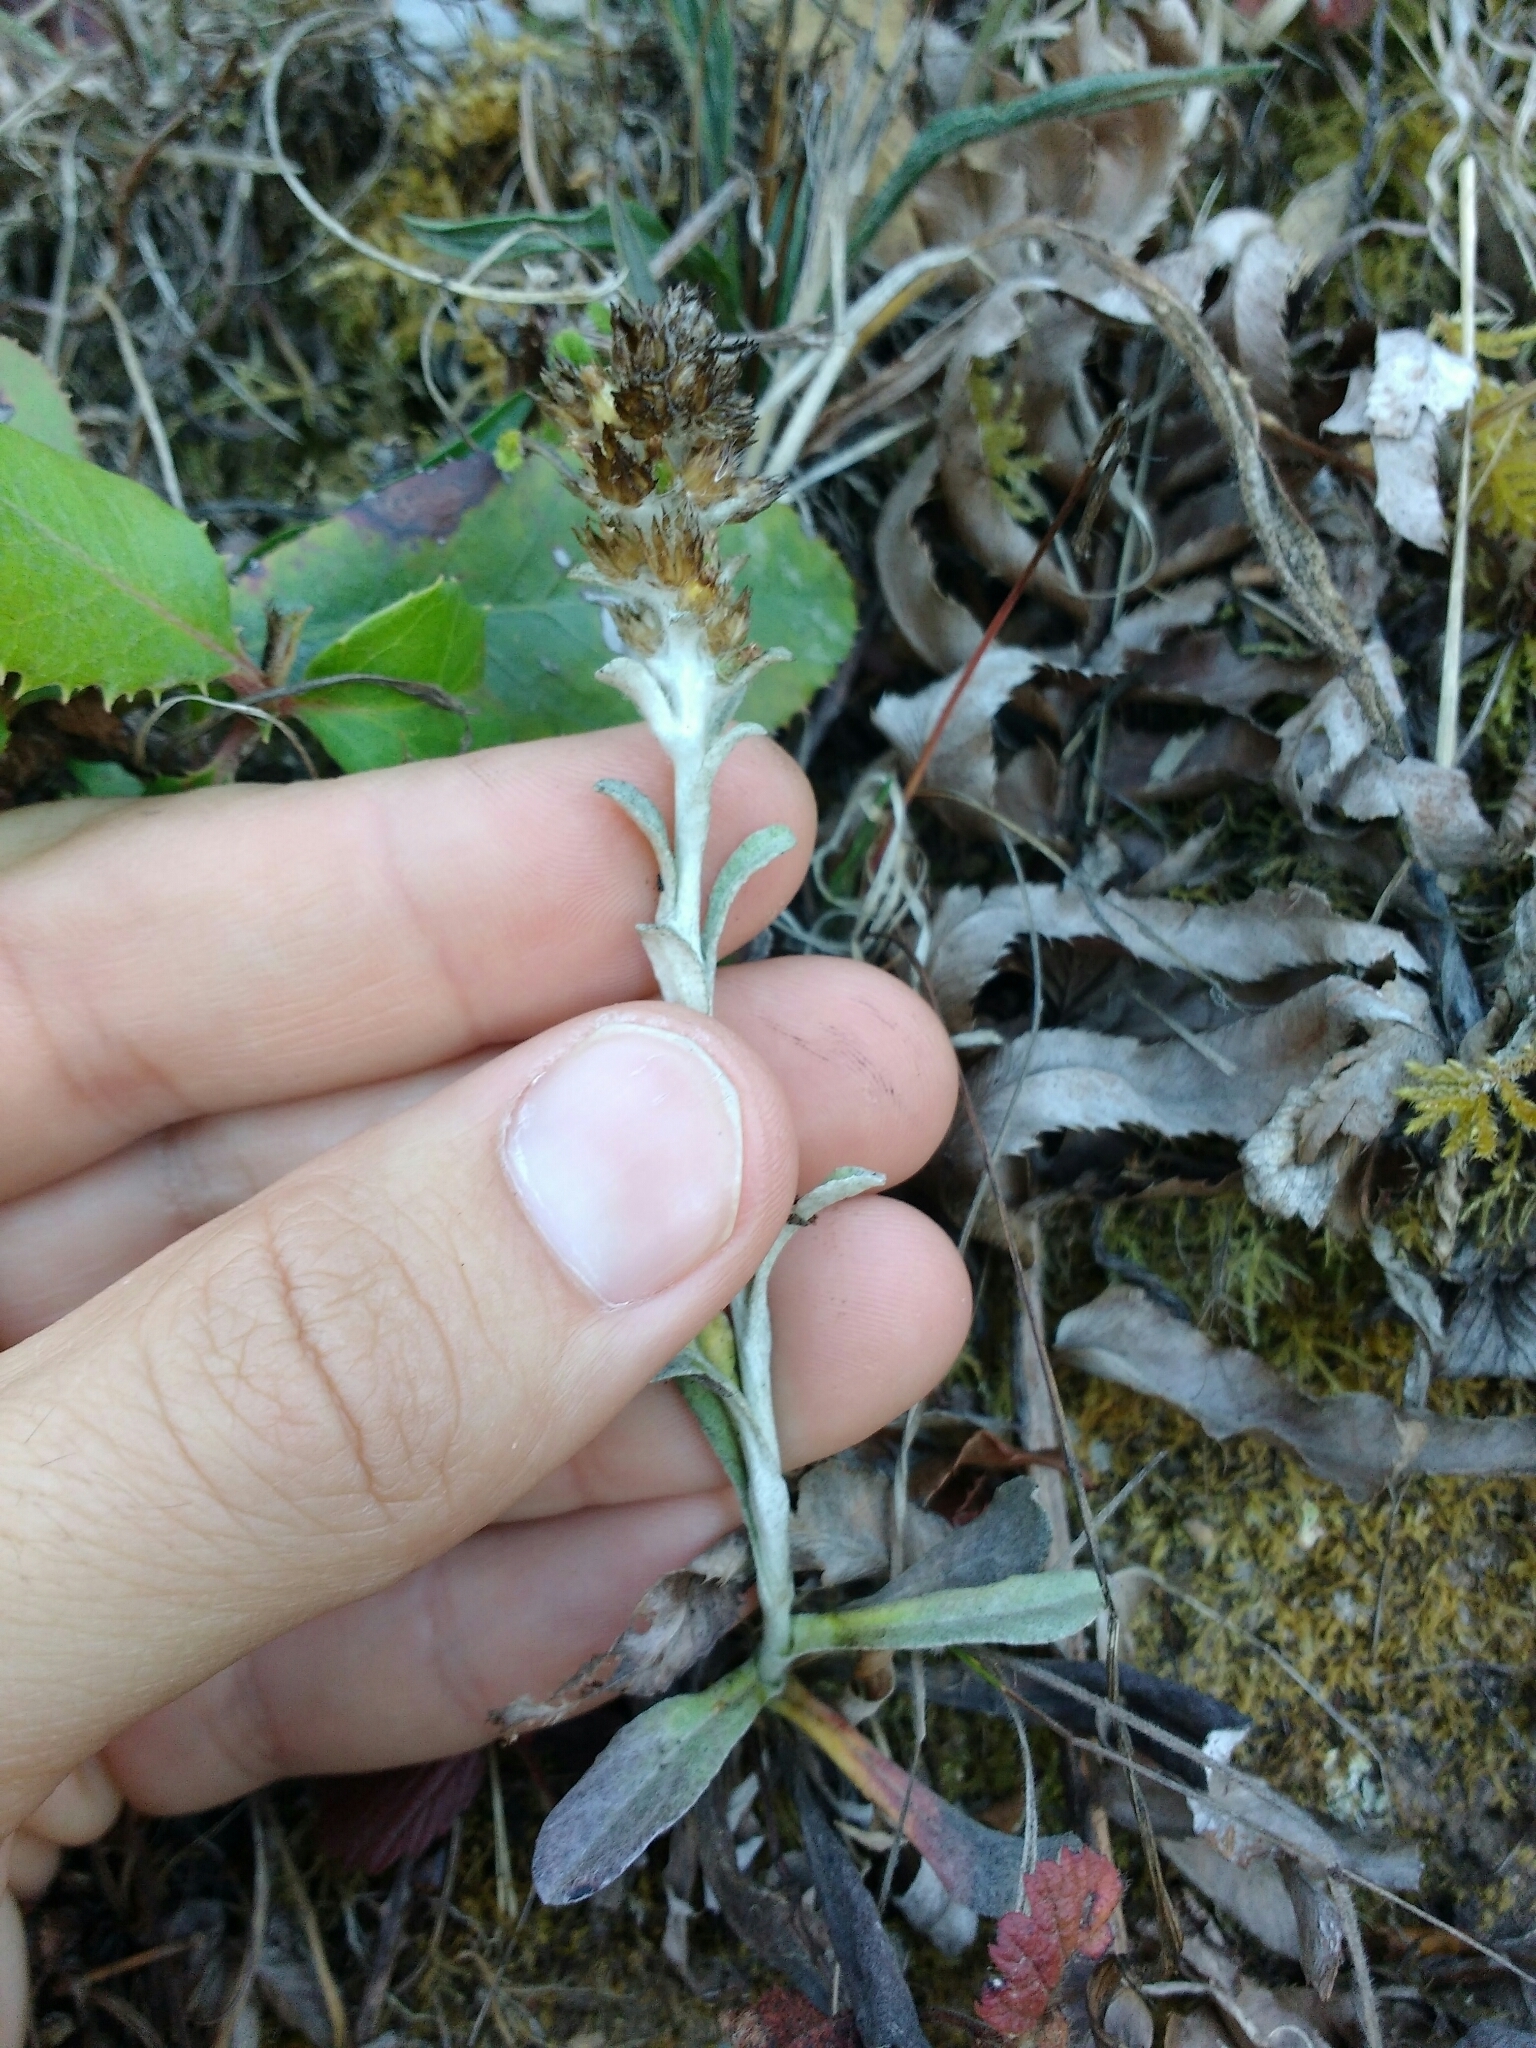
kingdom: Plantae
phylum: Tracheophyta
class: Magnoliopsida
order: Asterales
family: Asteraceae
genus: Gamochaeta
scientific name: Gamochaeta ustulata
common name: Pacific cudweed
